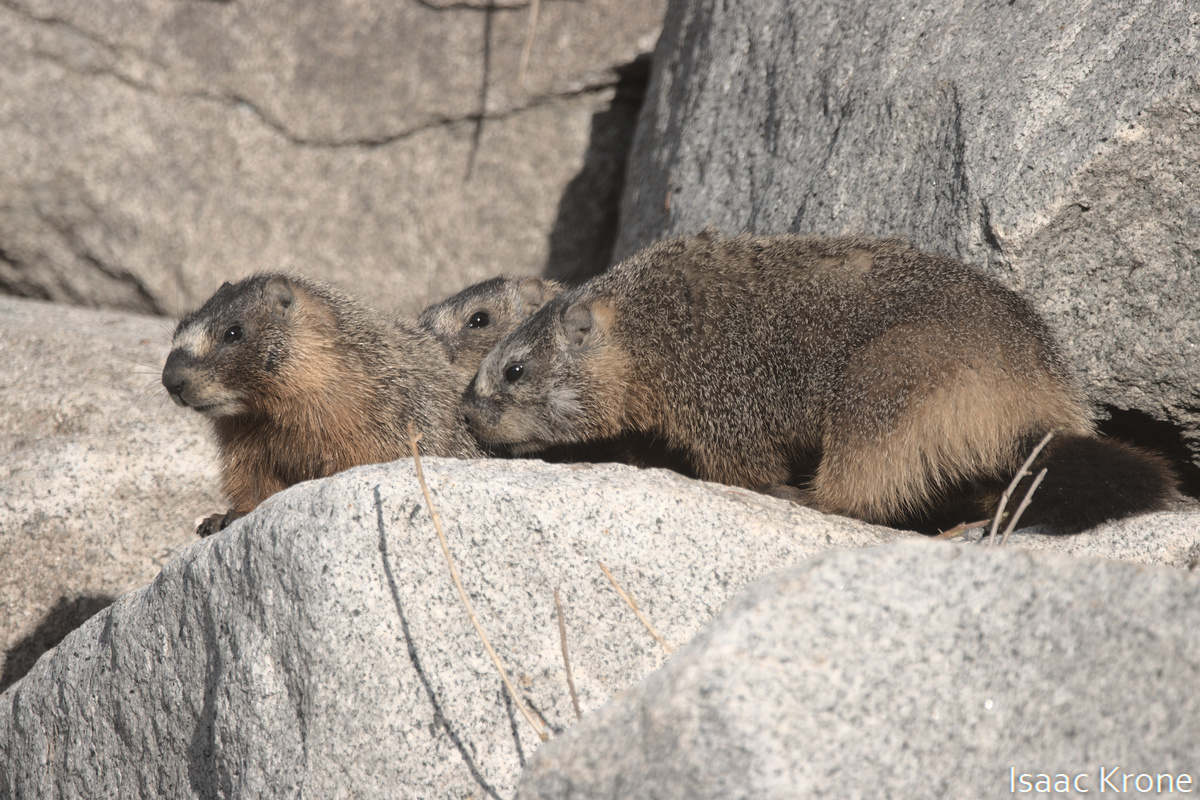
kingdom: Animalia
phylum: Chordata
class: Mammalia
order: Rodentia
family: Sciuridae
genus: Marmota
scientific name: Marmota flaviventris
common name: Yellow-bellied marmot
